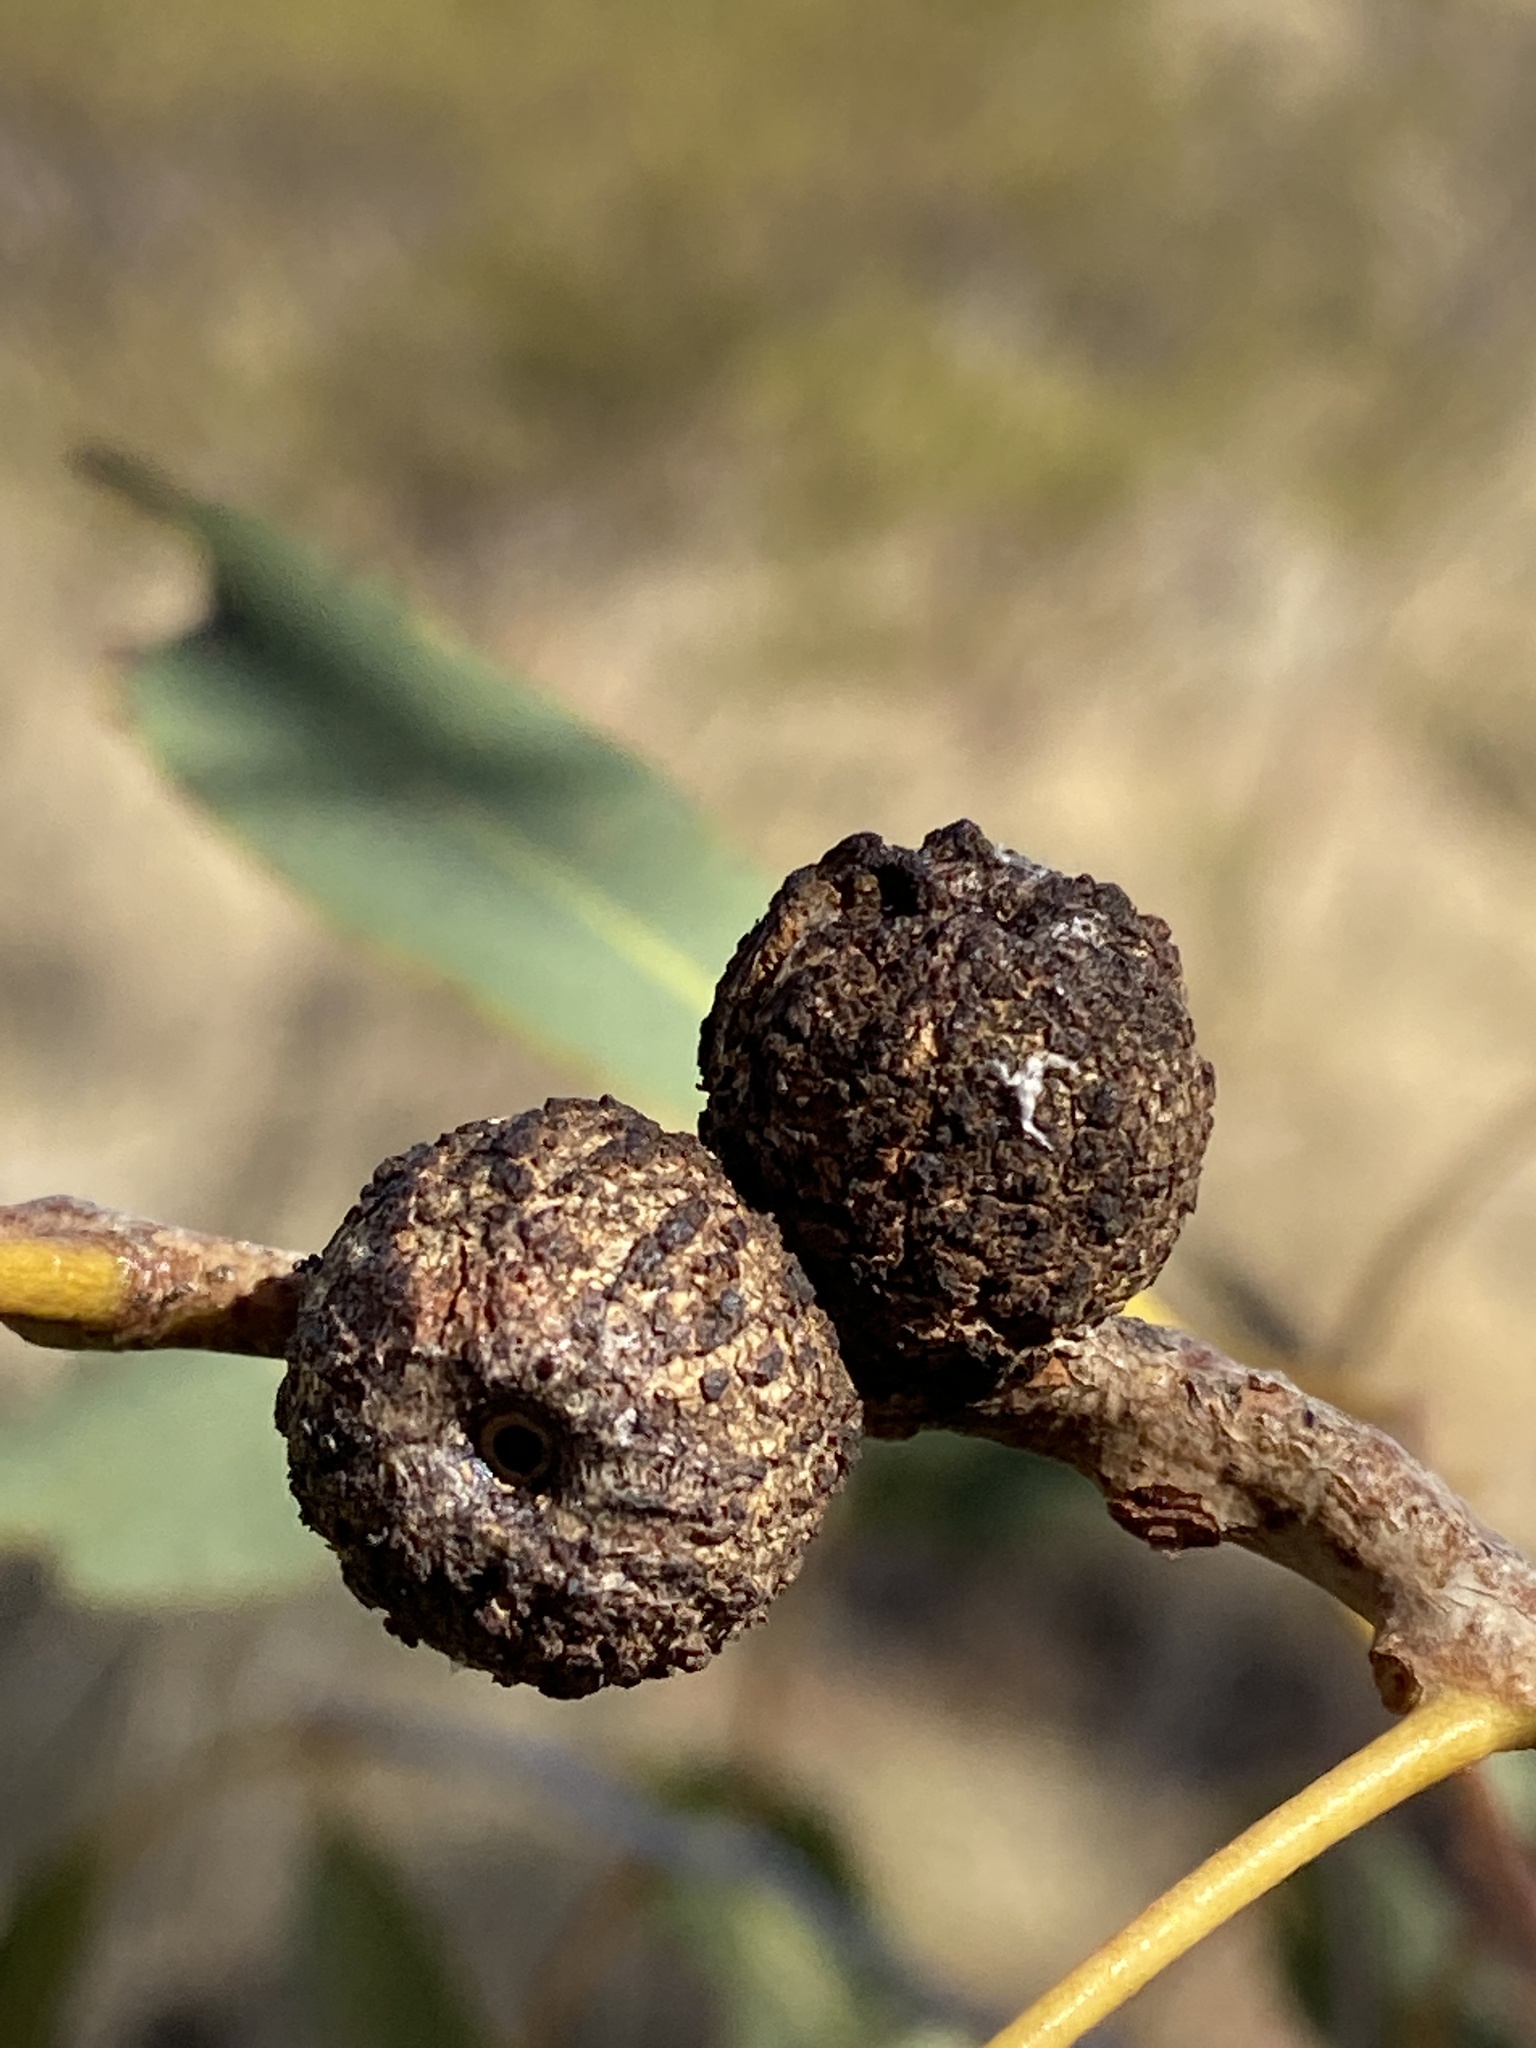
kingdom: Plantae
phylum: Tracheophyta
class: Magnoliopsida
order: Myrtales
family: Myrtaceae
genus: Corymbia
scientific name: Corymbia terminalis
